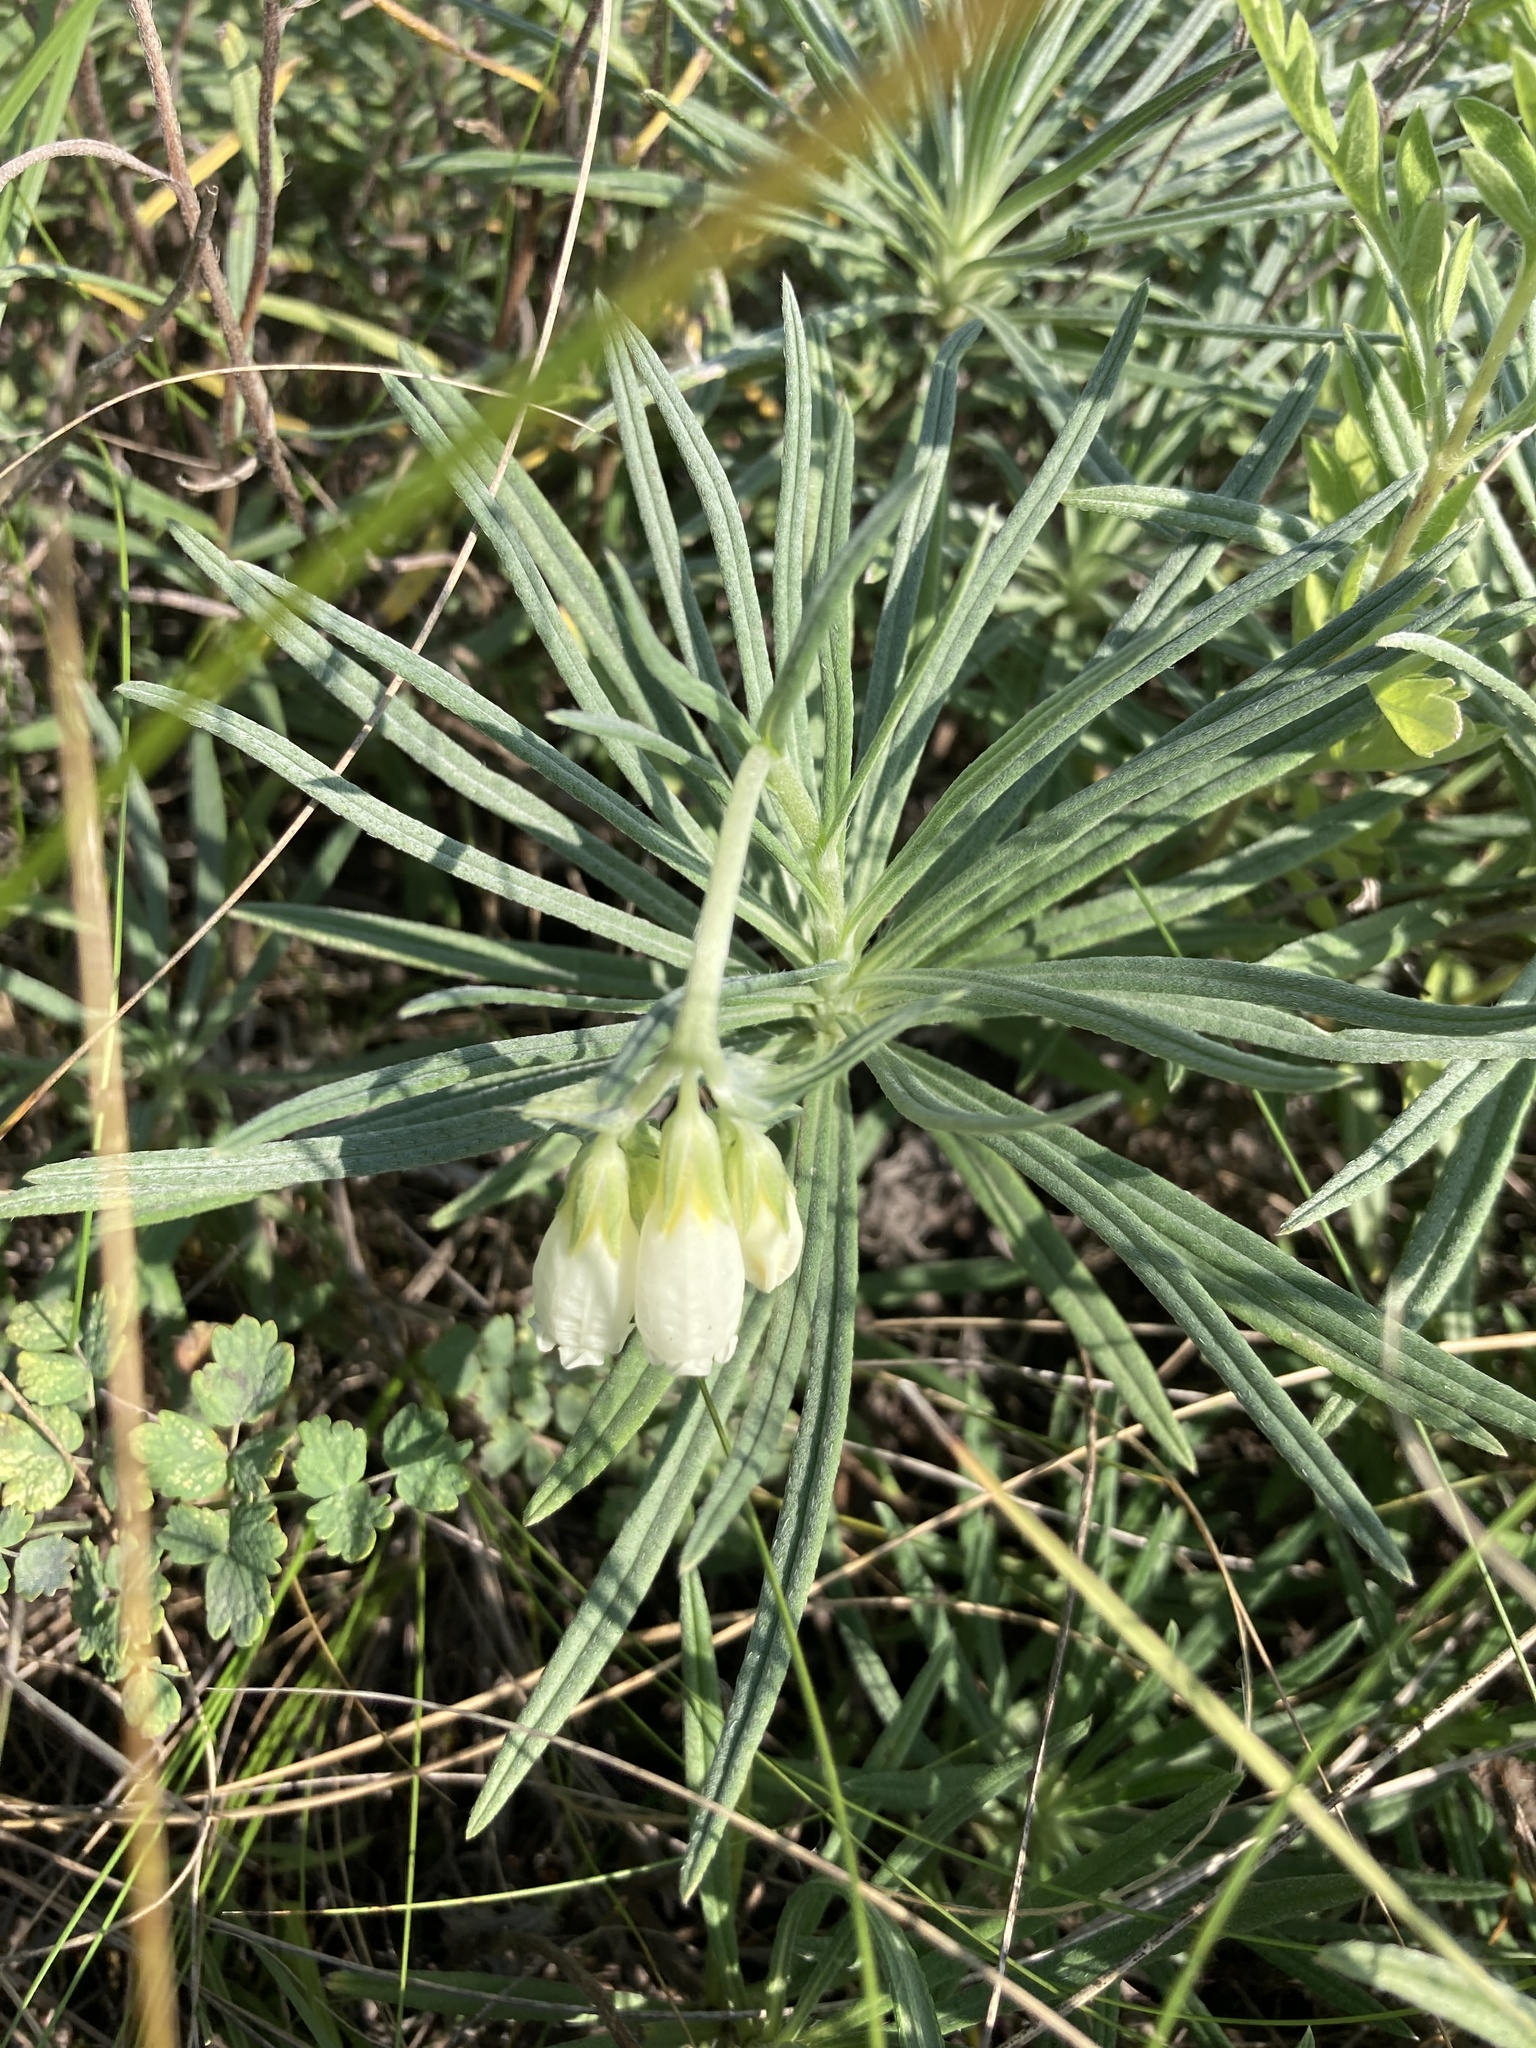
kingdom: Plantae
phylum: Tracheophyta
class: Magnoliopsida
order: Boraginales
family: Boraginaceae
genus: Onosma
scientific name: Onosma simplicissima
